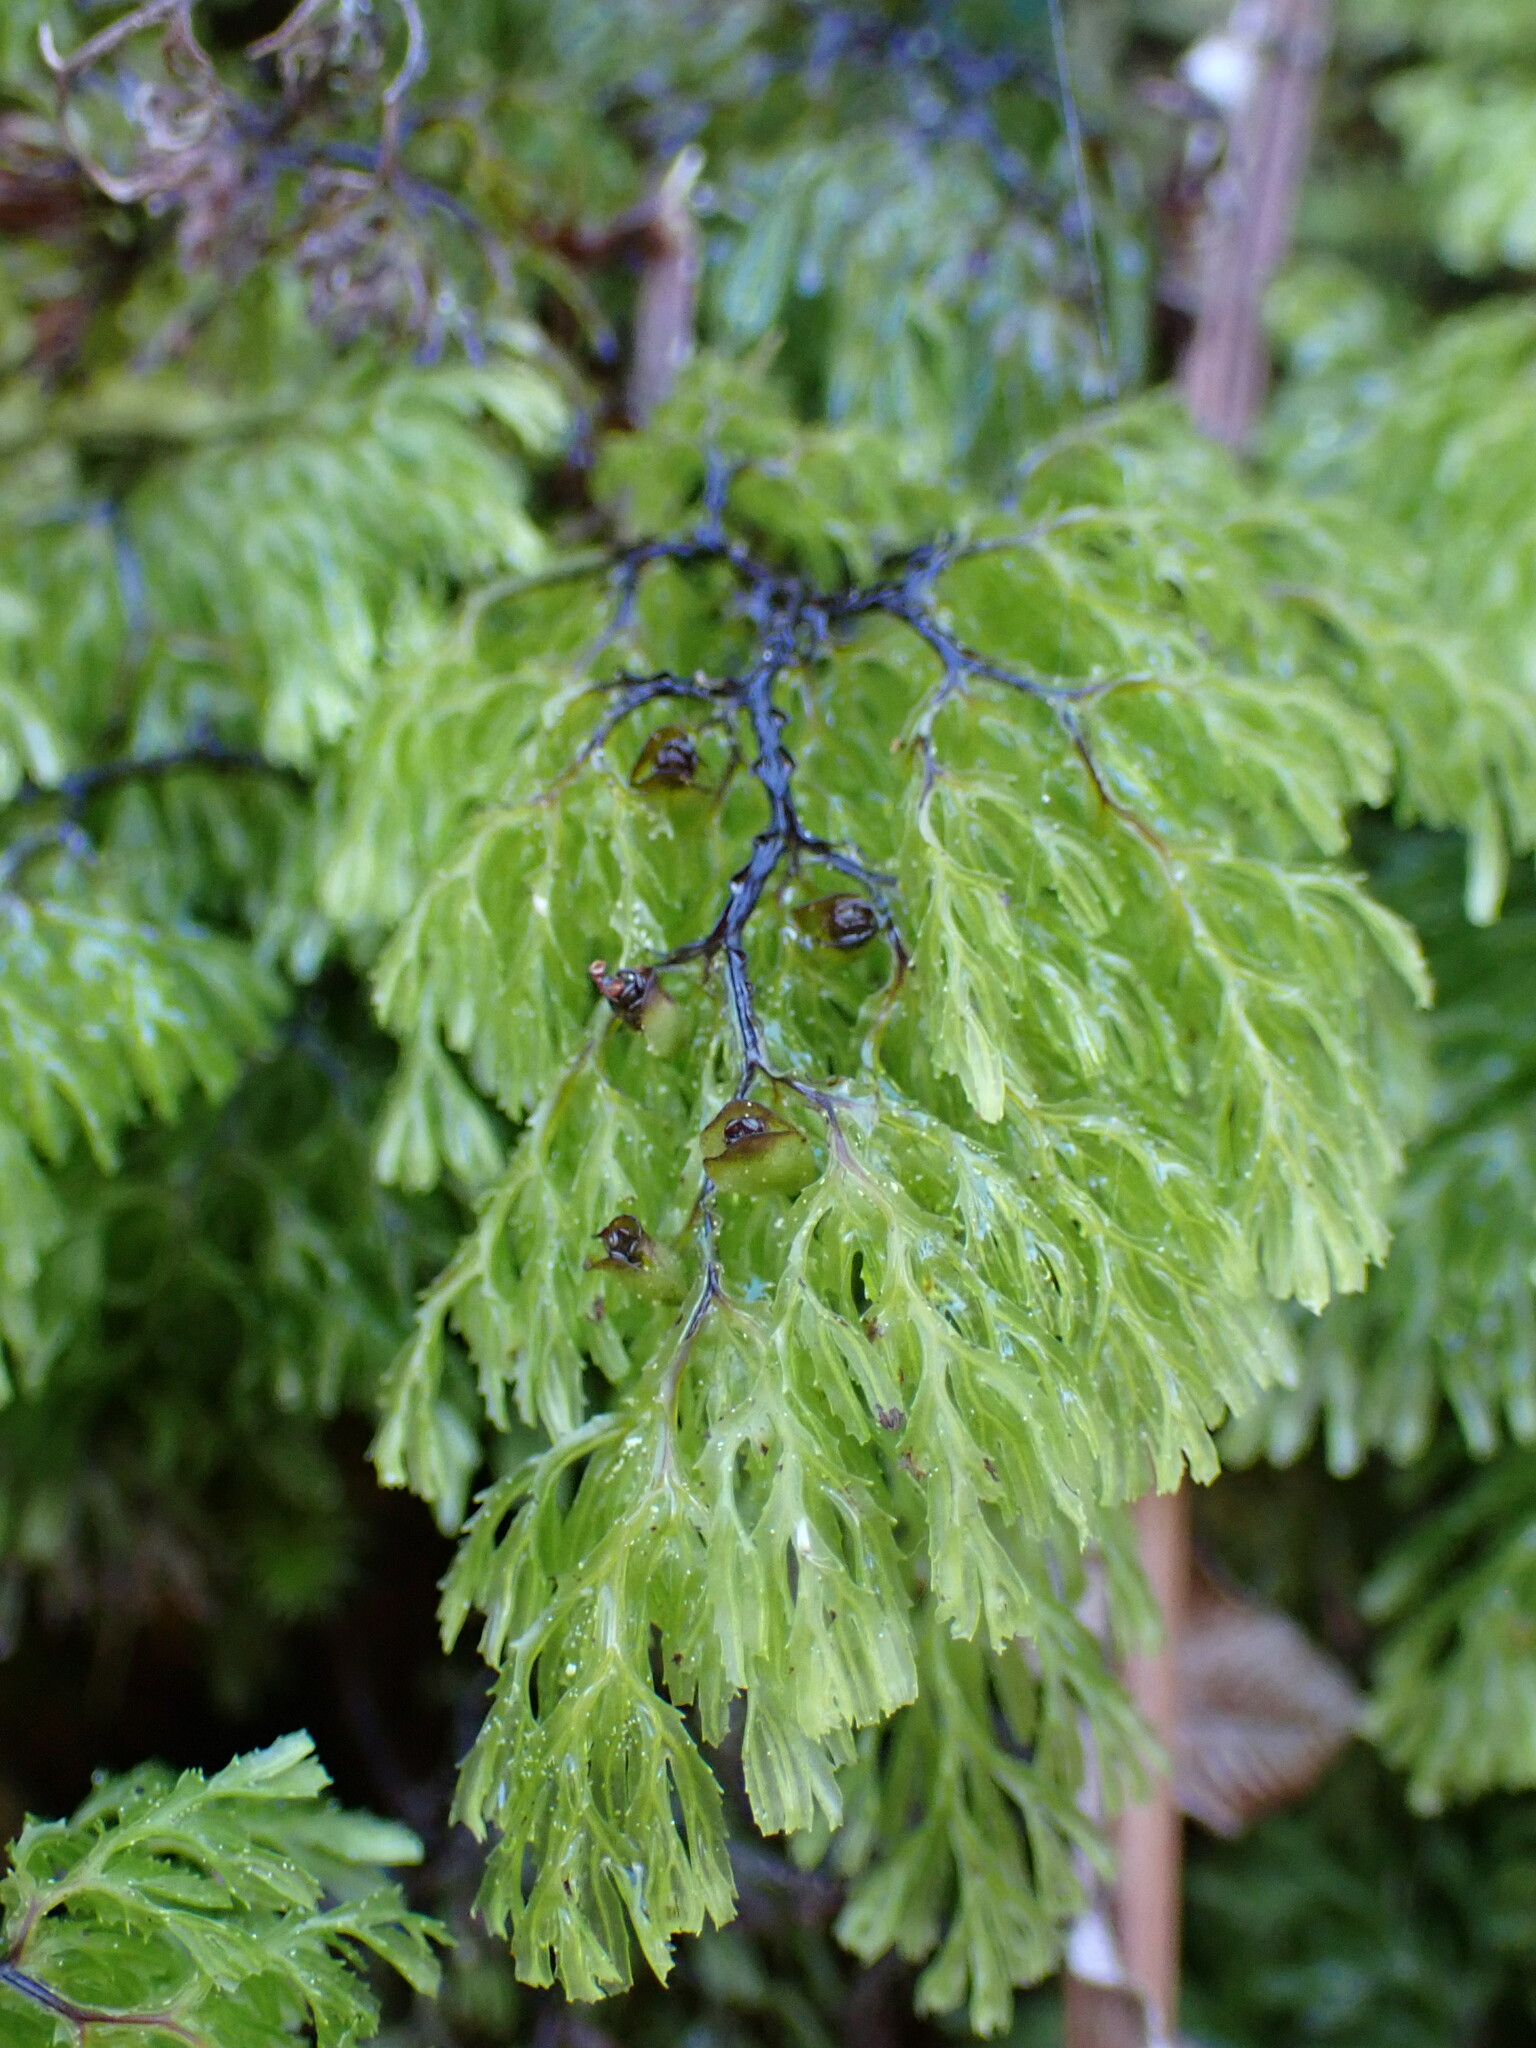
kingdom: Plantae
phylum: Tracheophyta
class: Polypodiopsida
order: Hymenophyllales
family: Hymenophyllaceae
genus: Hymenophyllum
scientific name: Hymenophyllum multifidum
